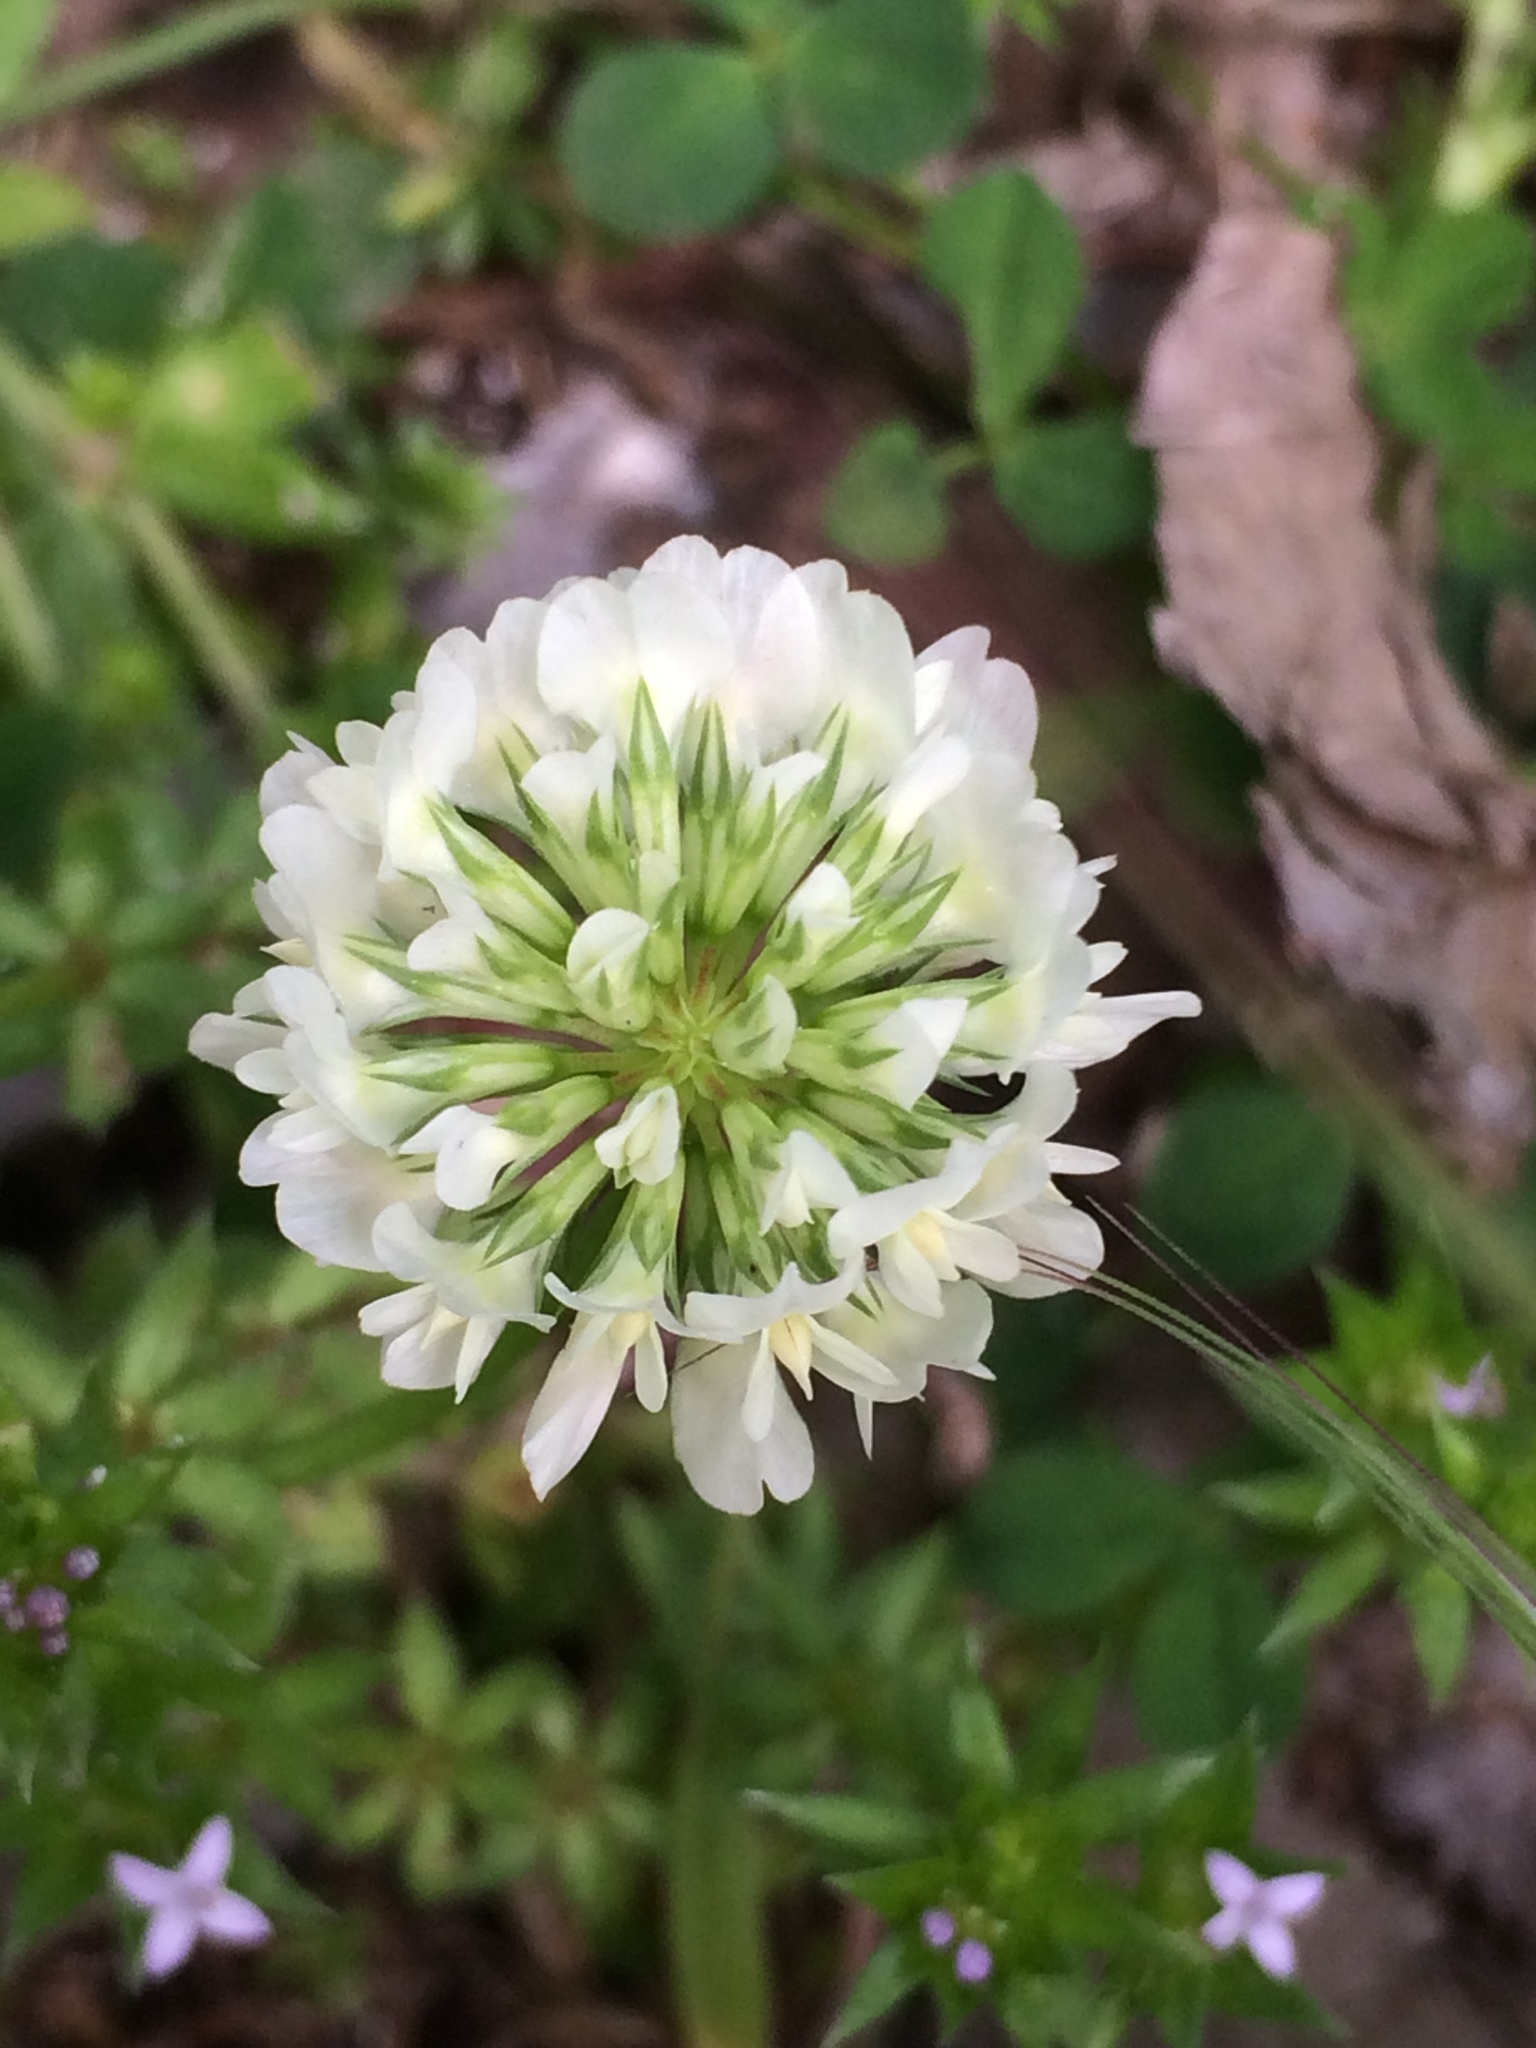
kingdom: Plantae
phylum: Tracheophyta
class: Magnoliopsida
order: Fabales
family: Fabaceae
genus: Trifolium
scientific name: Trifolium repens
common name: White clover
